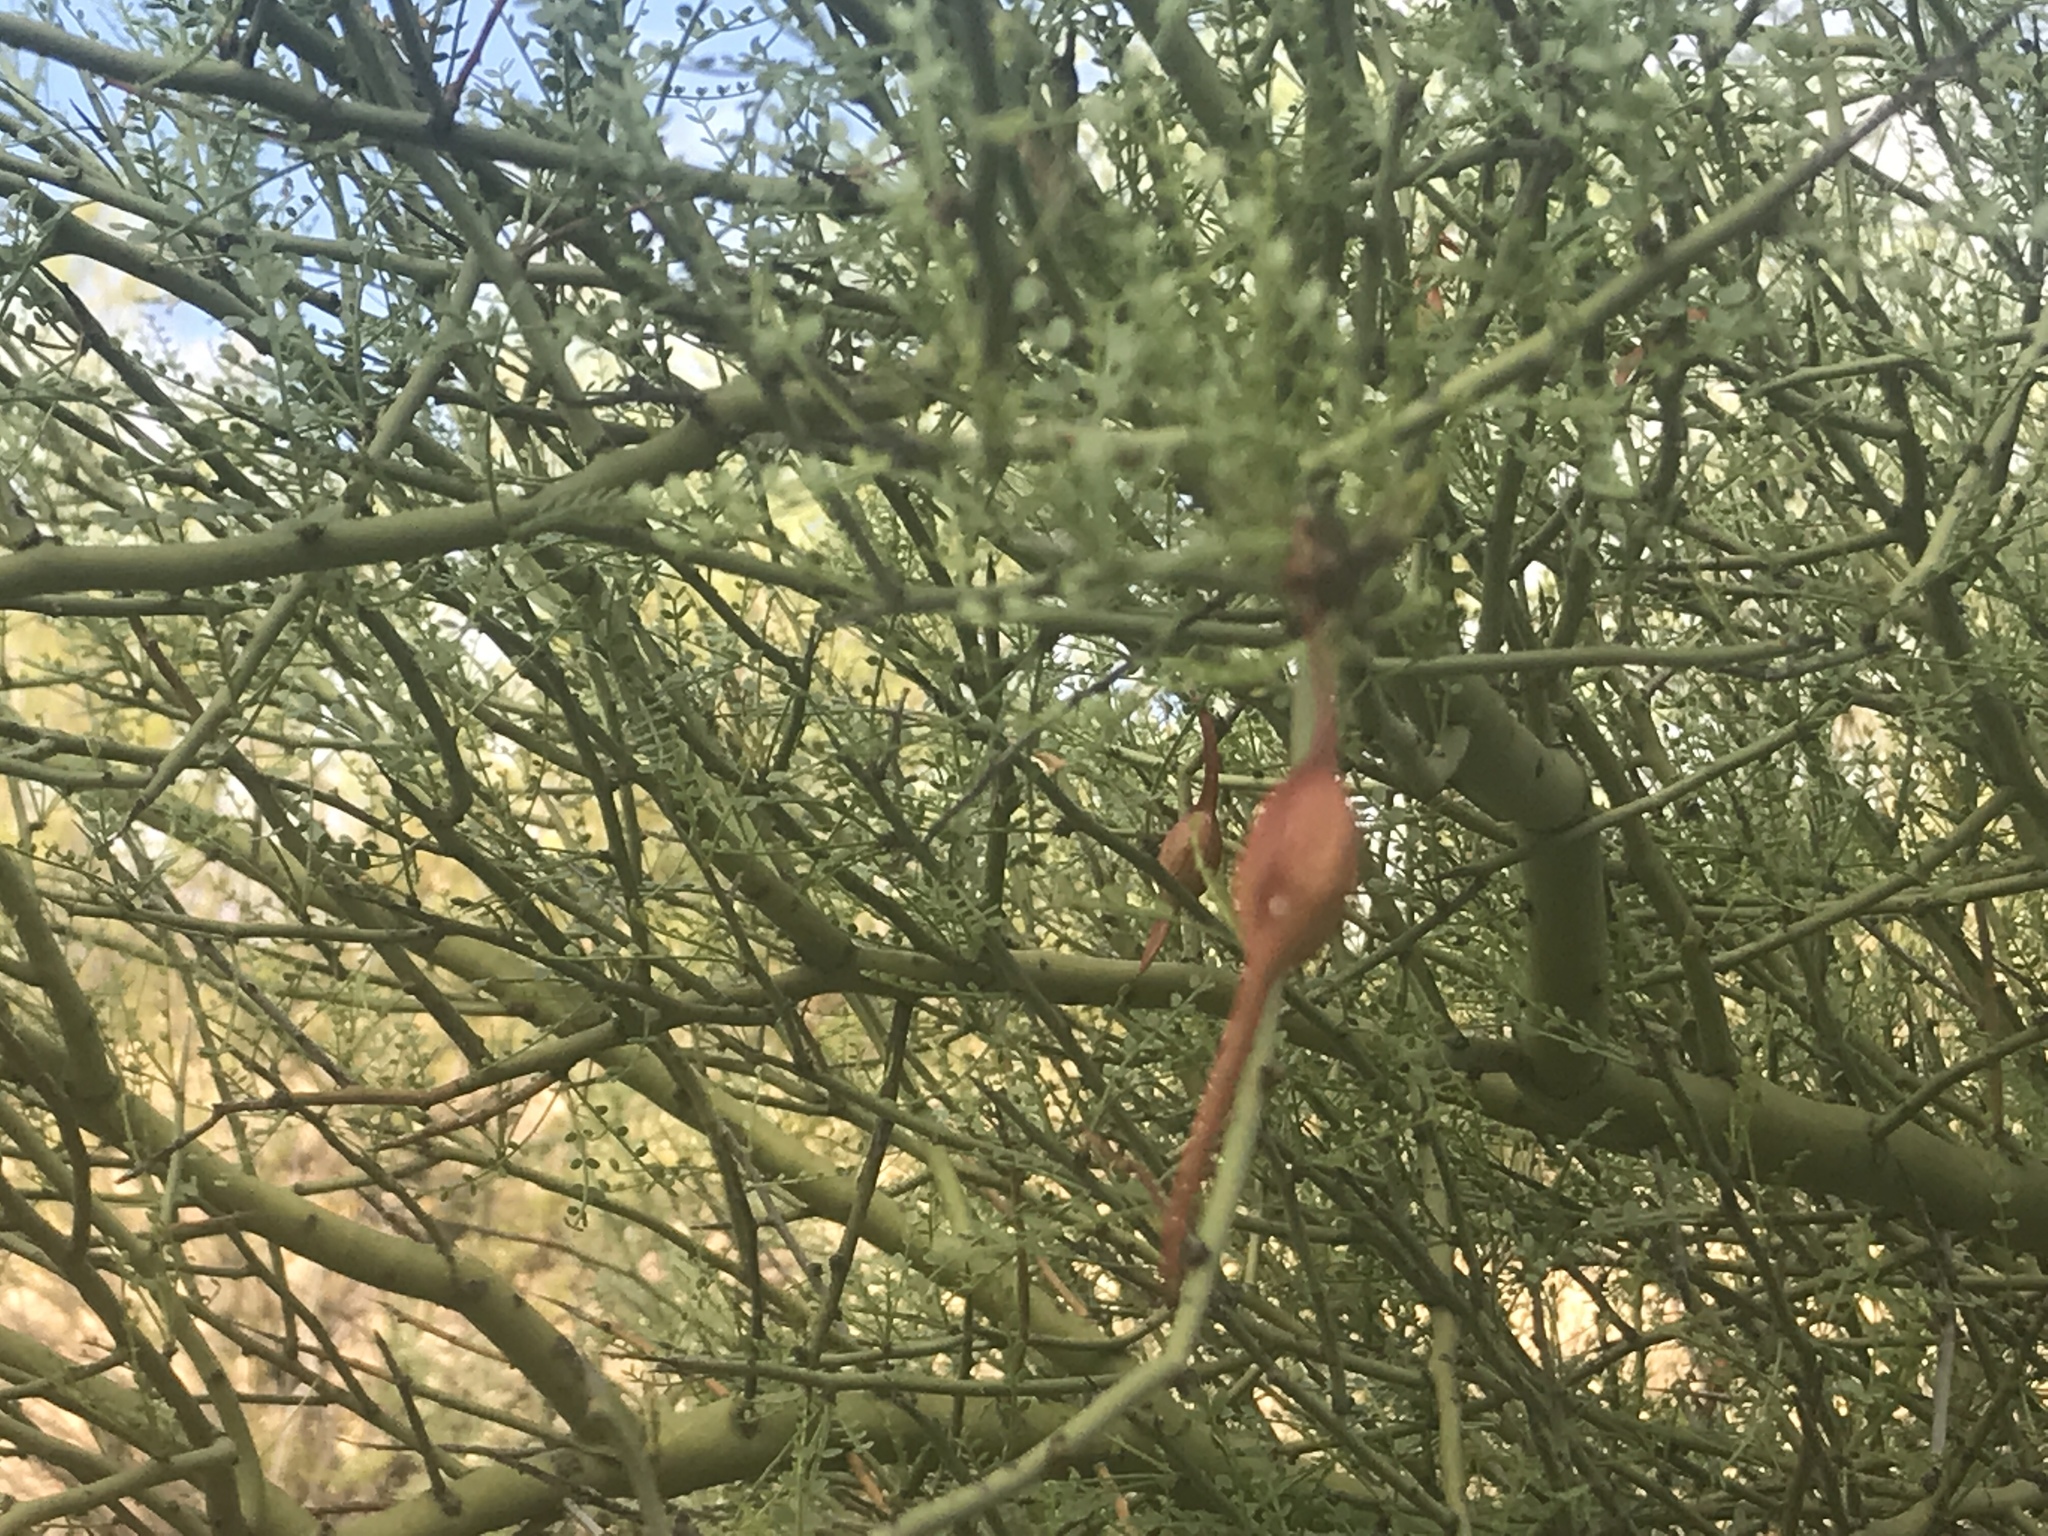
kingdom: Plantae
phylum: Tracheophyta
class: Magnoliopsida
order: Fabales
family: Fabaceae
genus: Parkinsonia
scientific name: Parkinsonia microphylla
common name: Yellow paloverde
